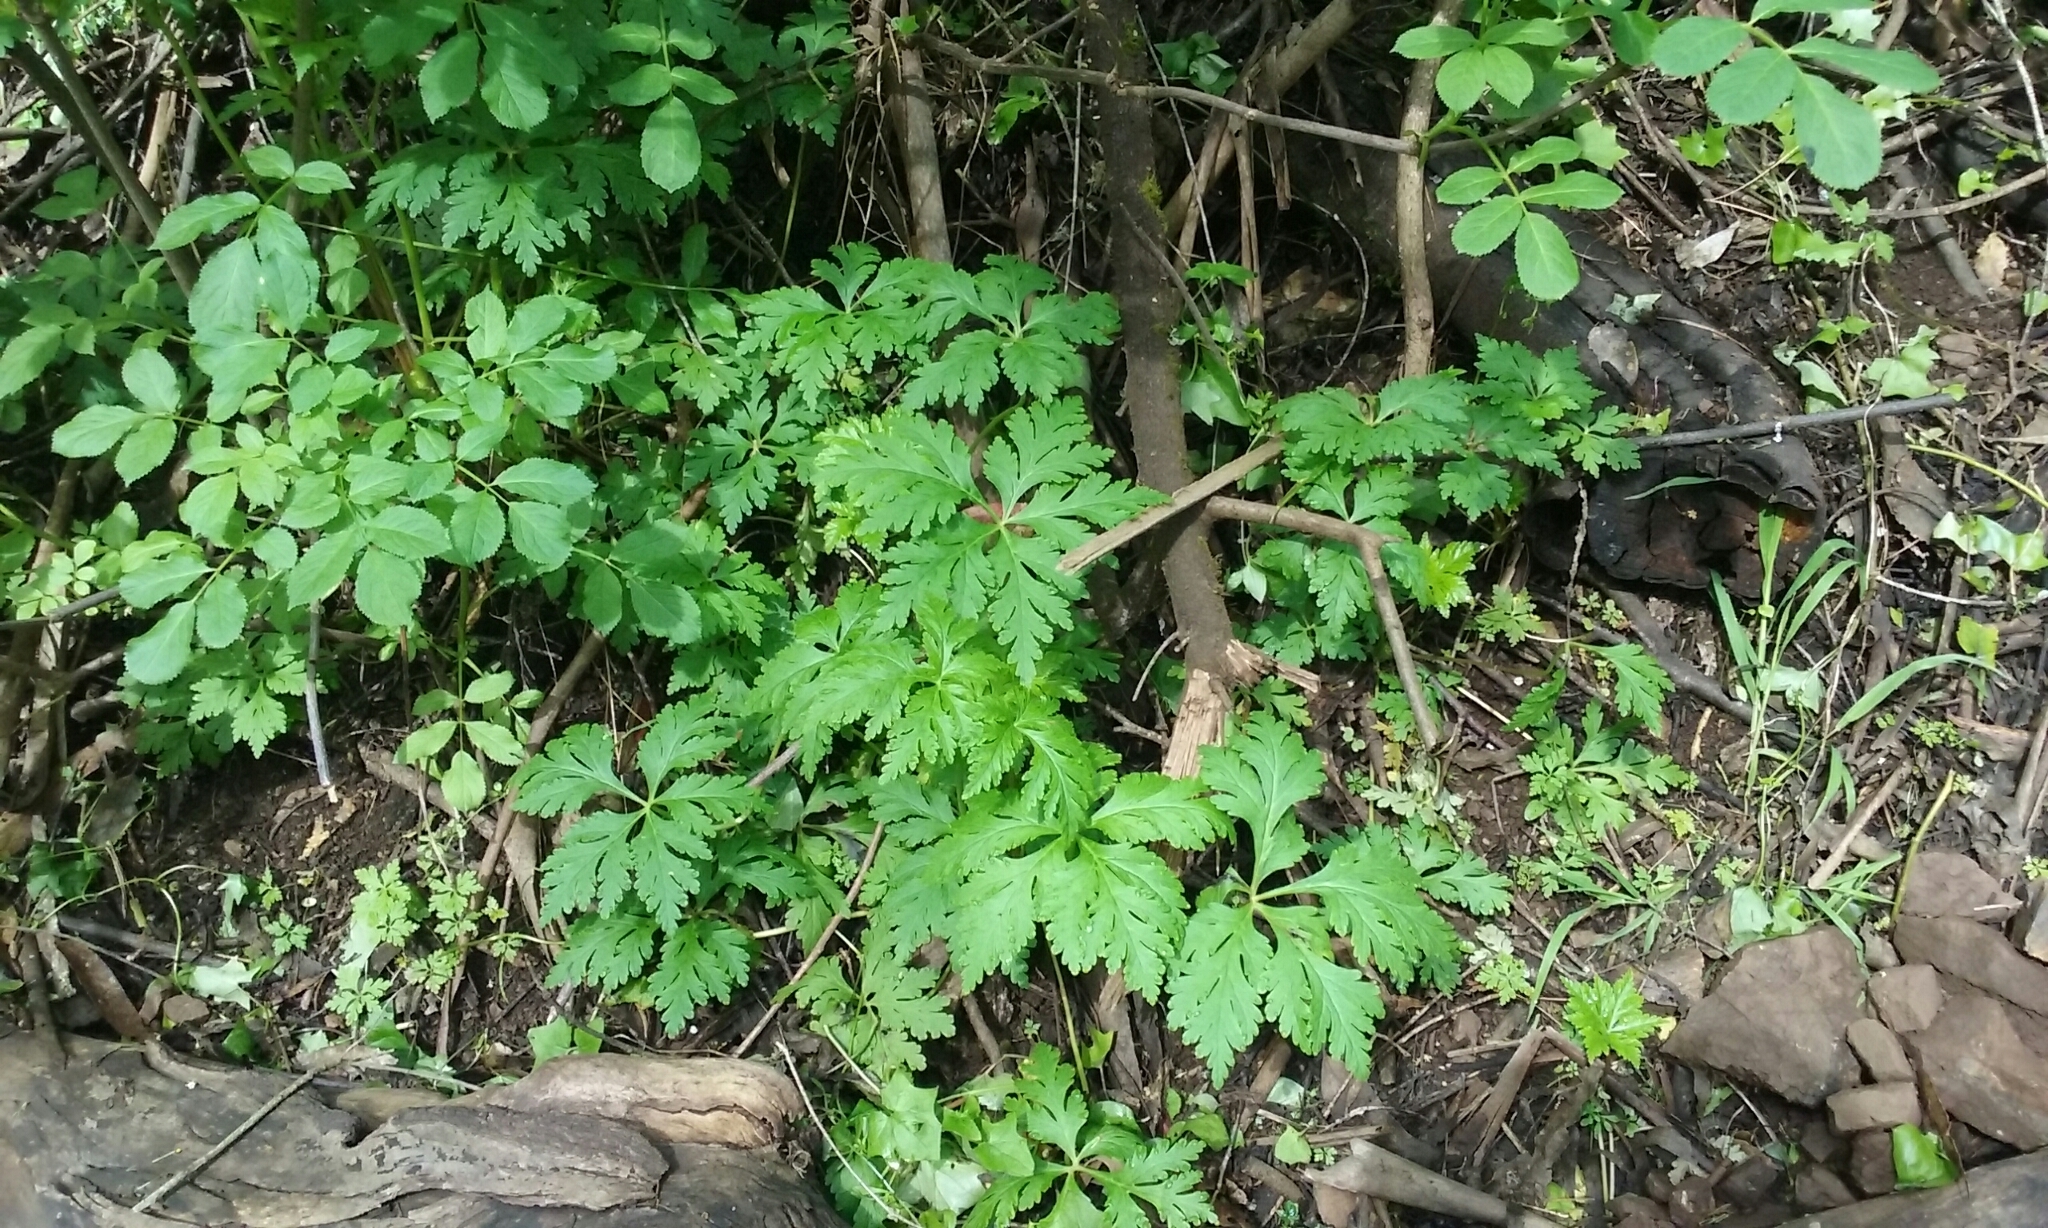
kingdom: Plantae
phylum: Tracheophyta
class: Magnoliopsida
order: Geraniales
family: Geraniaceae
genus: Geranium
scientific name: Geranium reuteri
